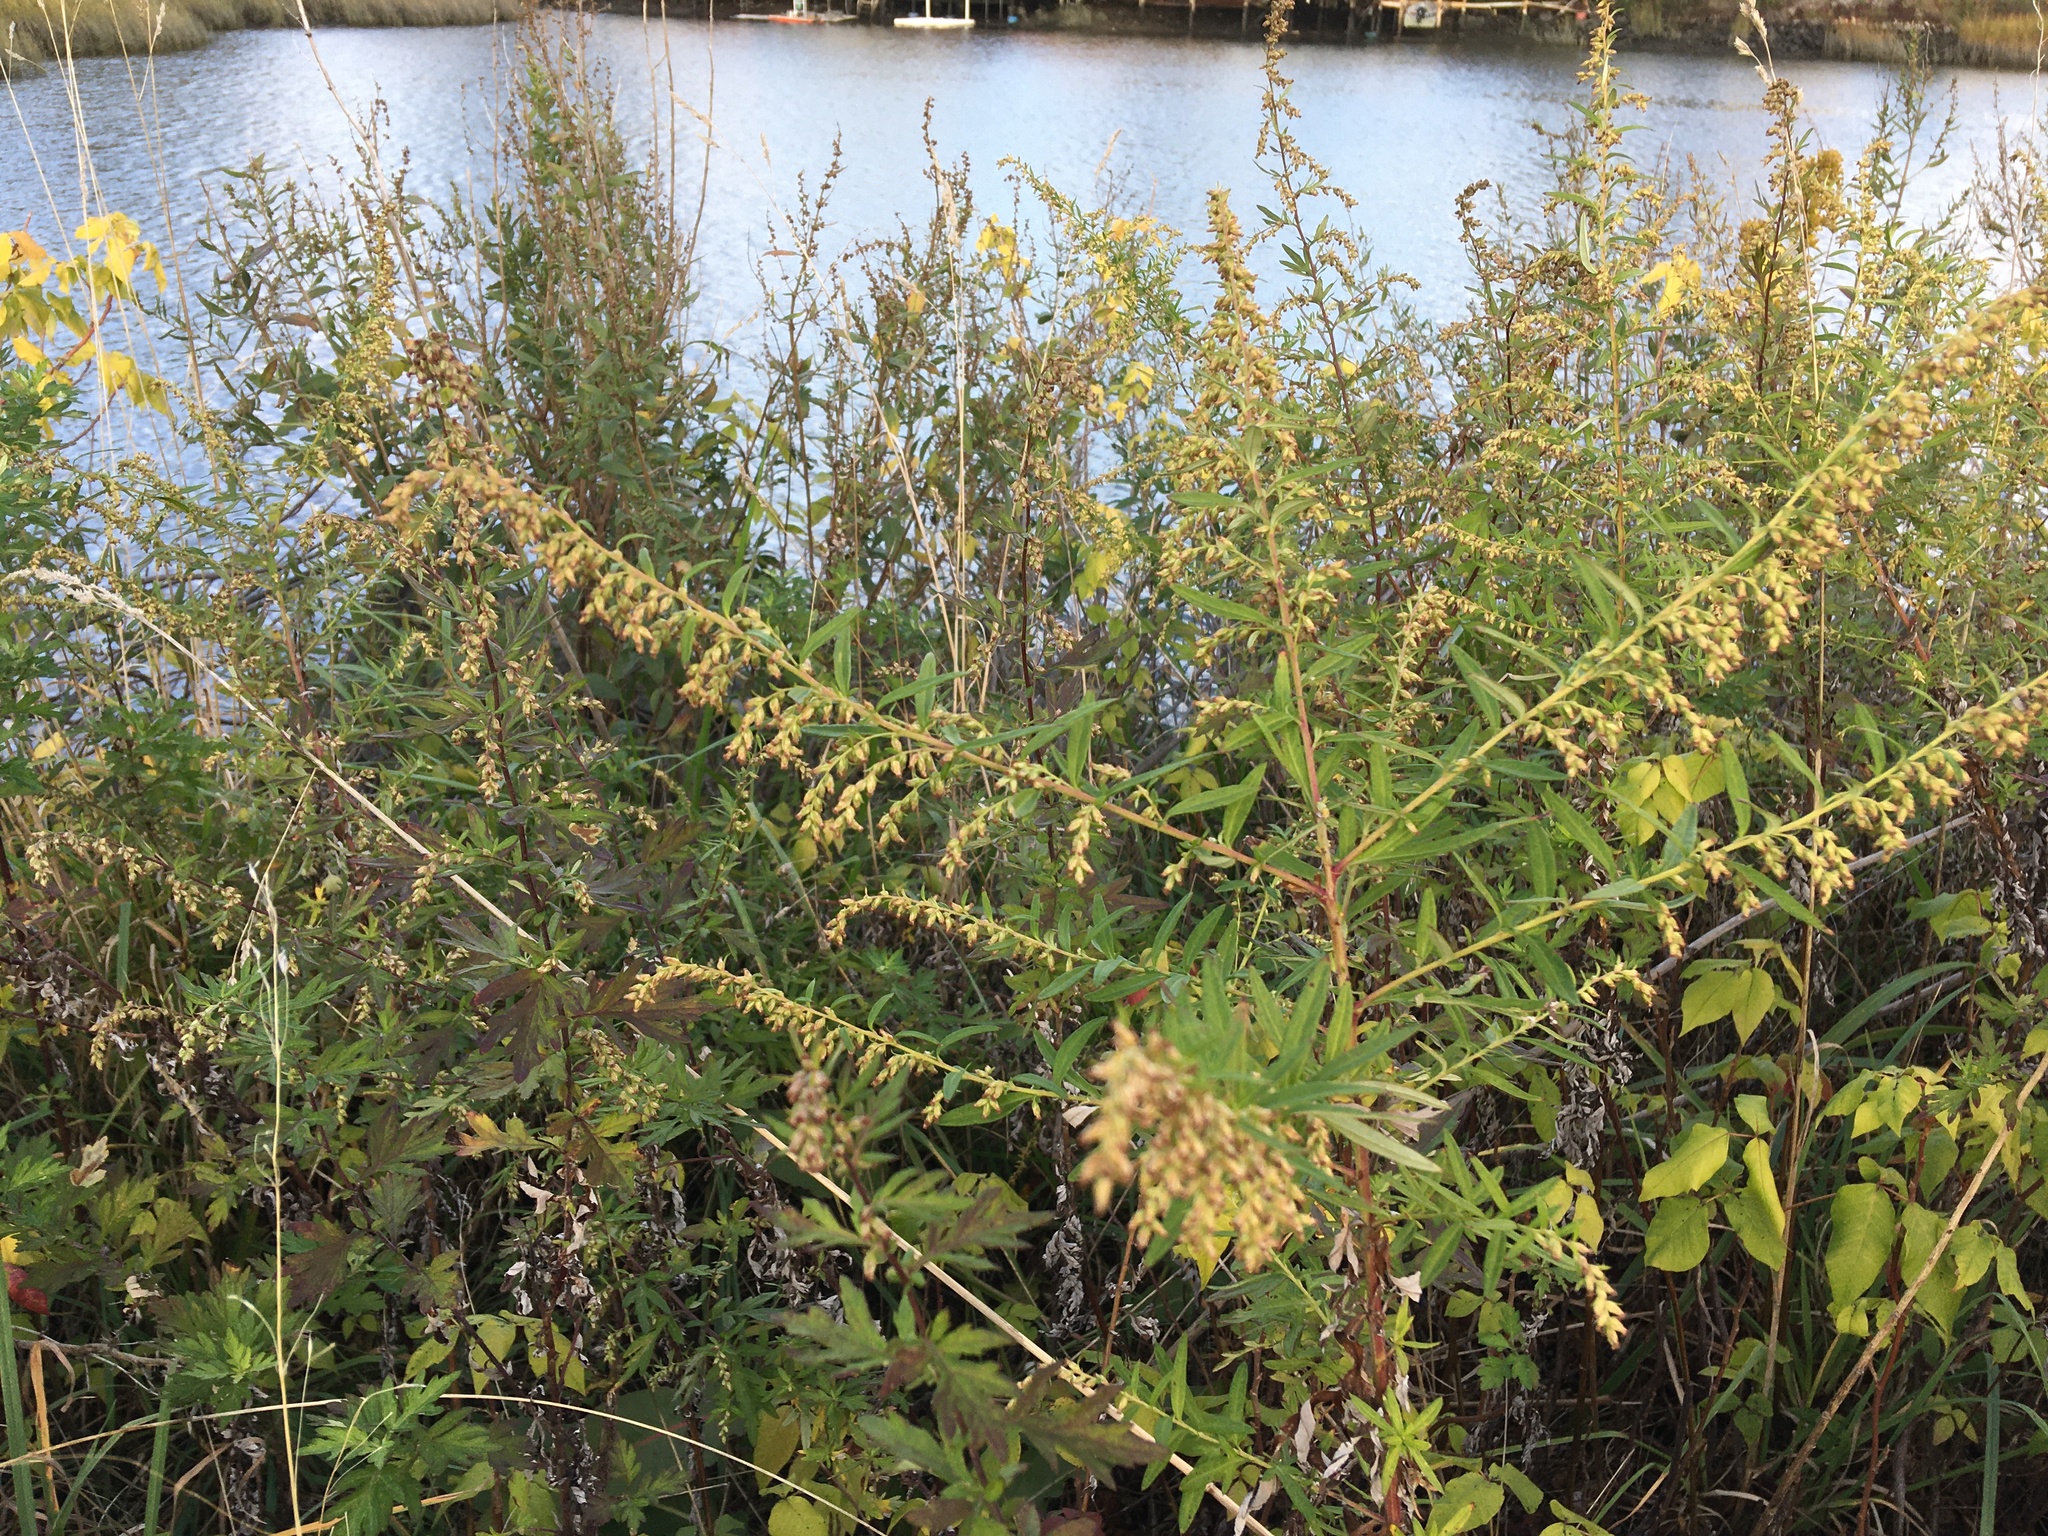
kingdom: Plantae
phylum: Tracheophyta
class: Magnoliopsida
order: Asterales
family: Asteraceae
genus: Artemisia
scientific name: Artemisia vulgaris
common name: Mugwort
